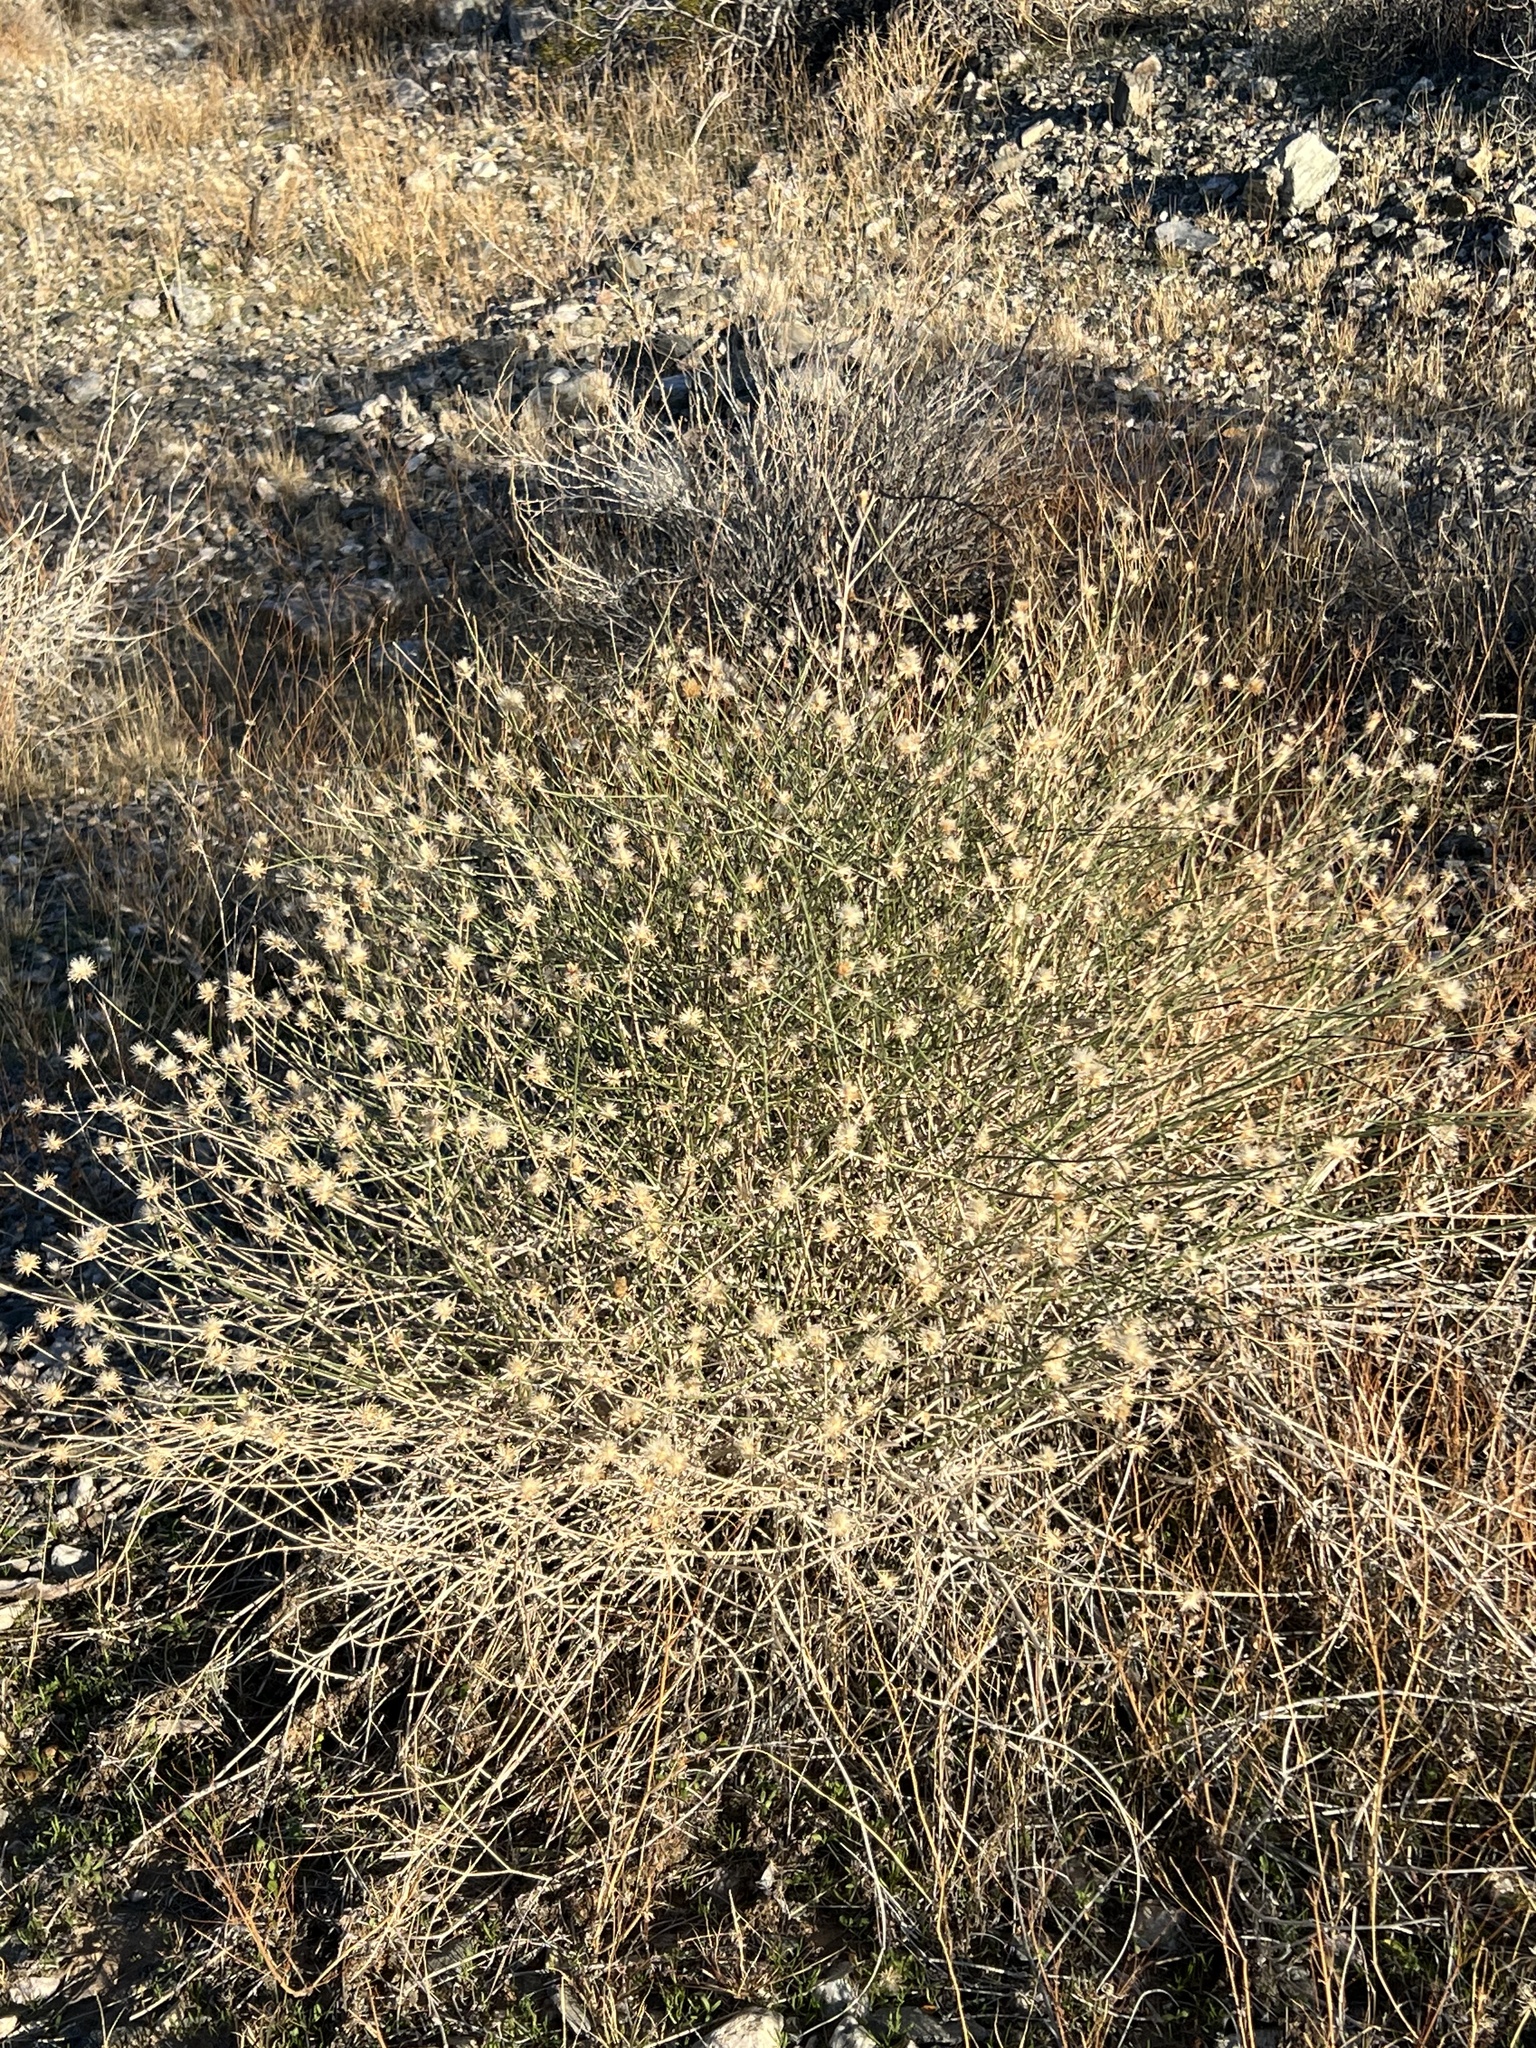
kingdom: Plantae
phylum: Tracheophyta
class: Magnoliopsida
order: Asterales
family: Asteraceae
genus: Bebbia
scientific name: Bebbia juncea
